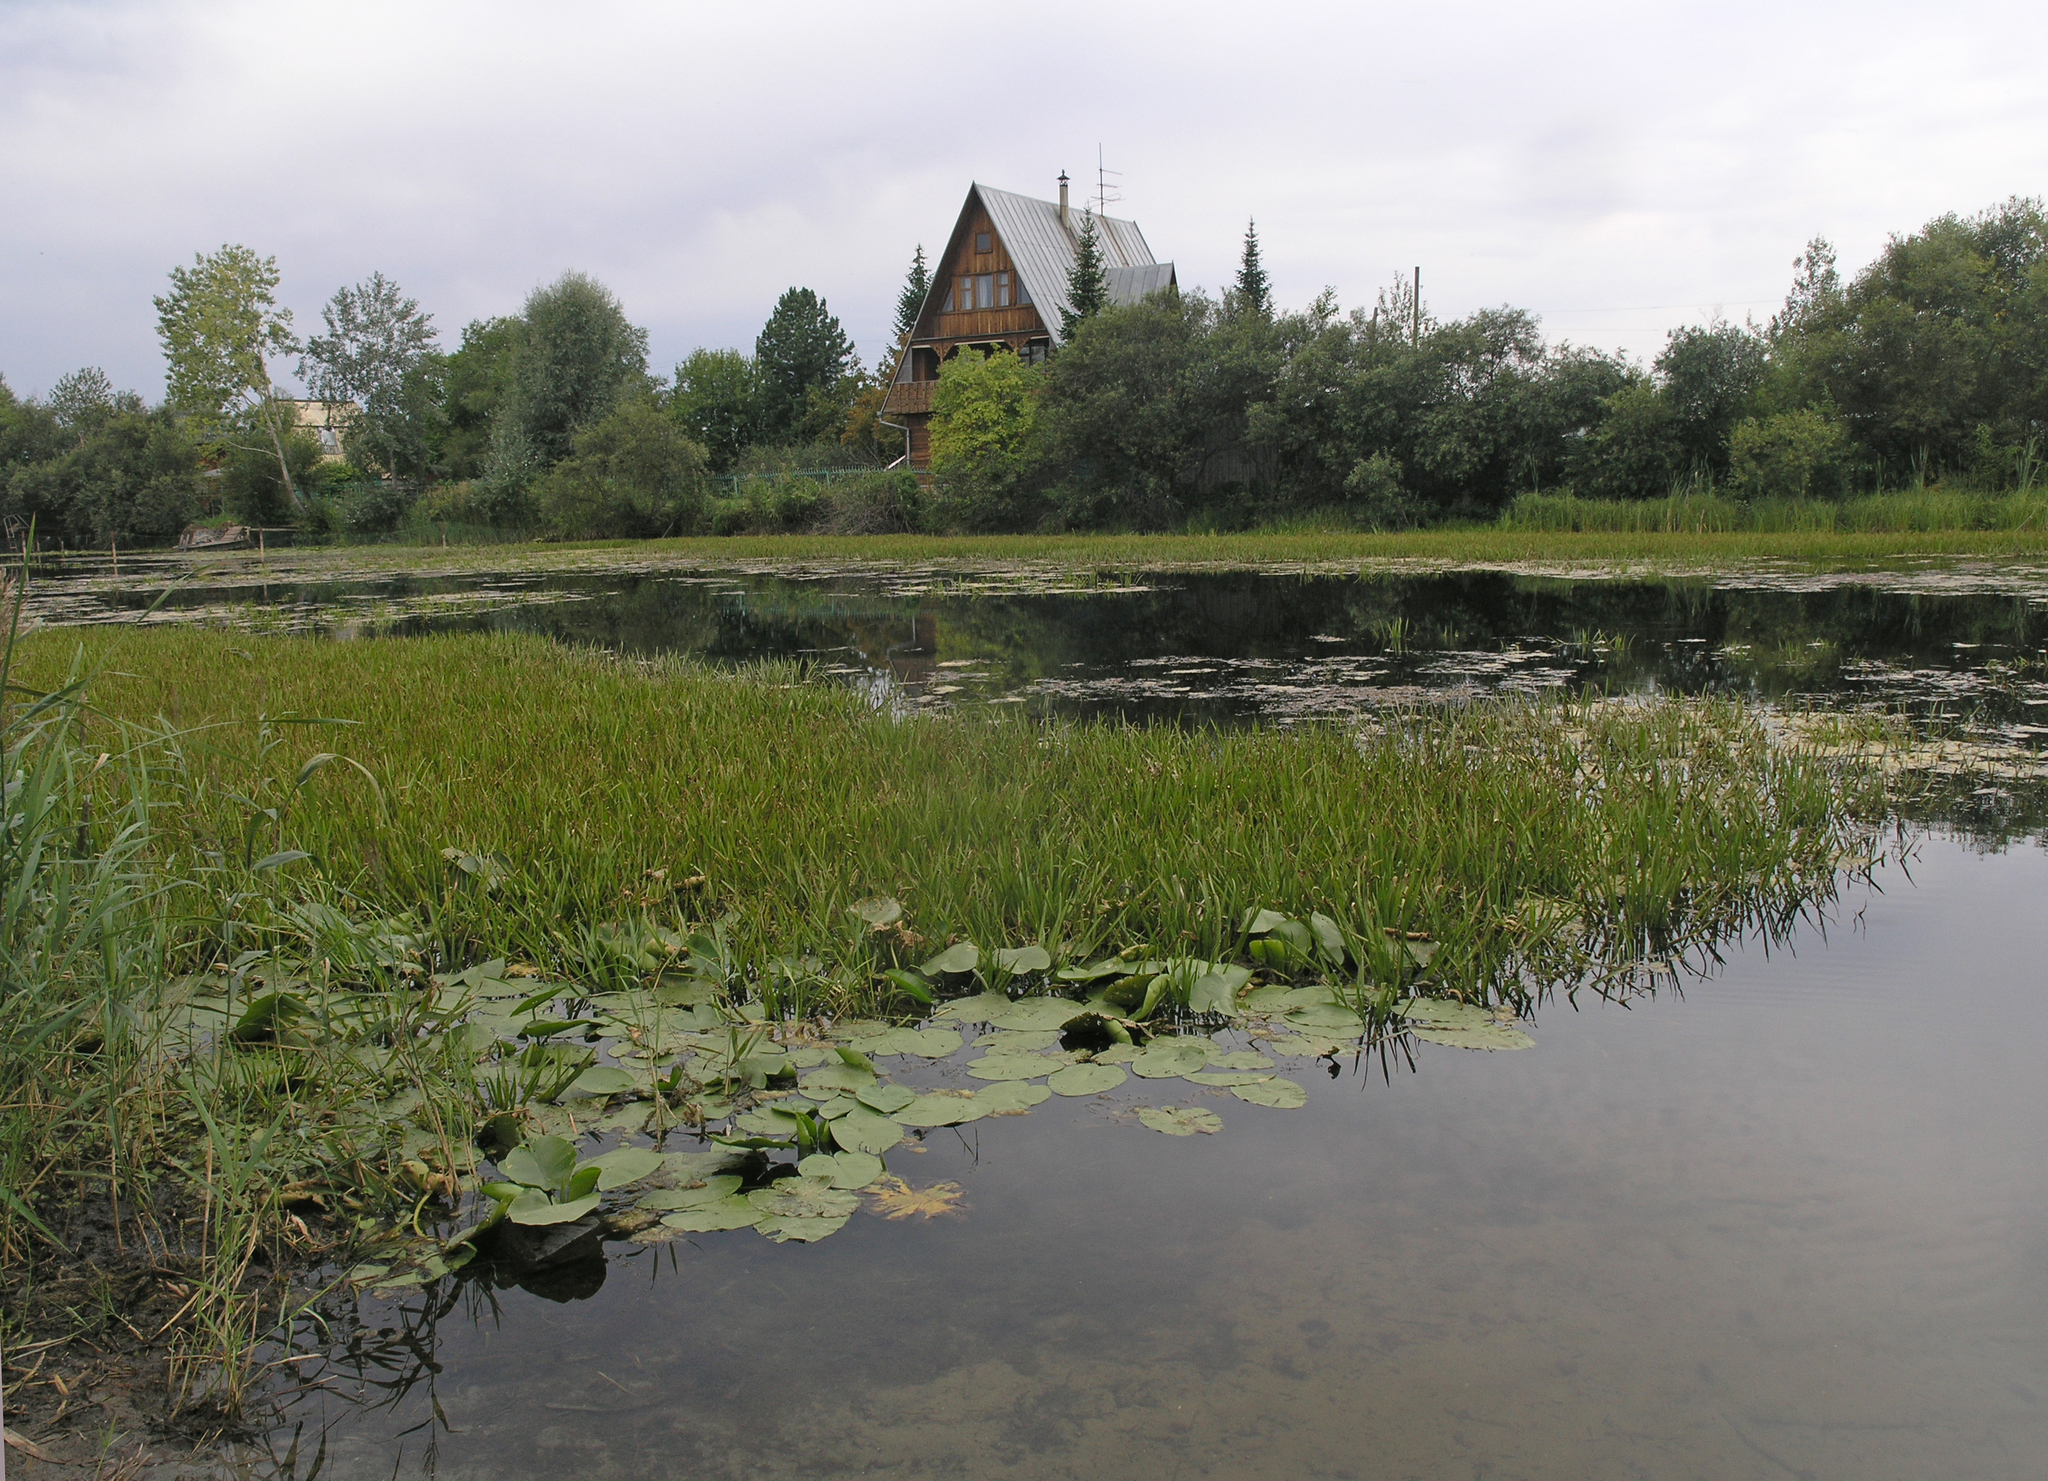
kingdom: Plantae
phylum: Tracheophyta
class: Liliopsida
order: Alismatales
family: Hydrocharitaceae
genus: Stratiotes
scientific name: Stratiotes aloides
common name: Water-soldier
